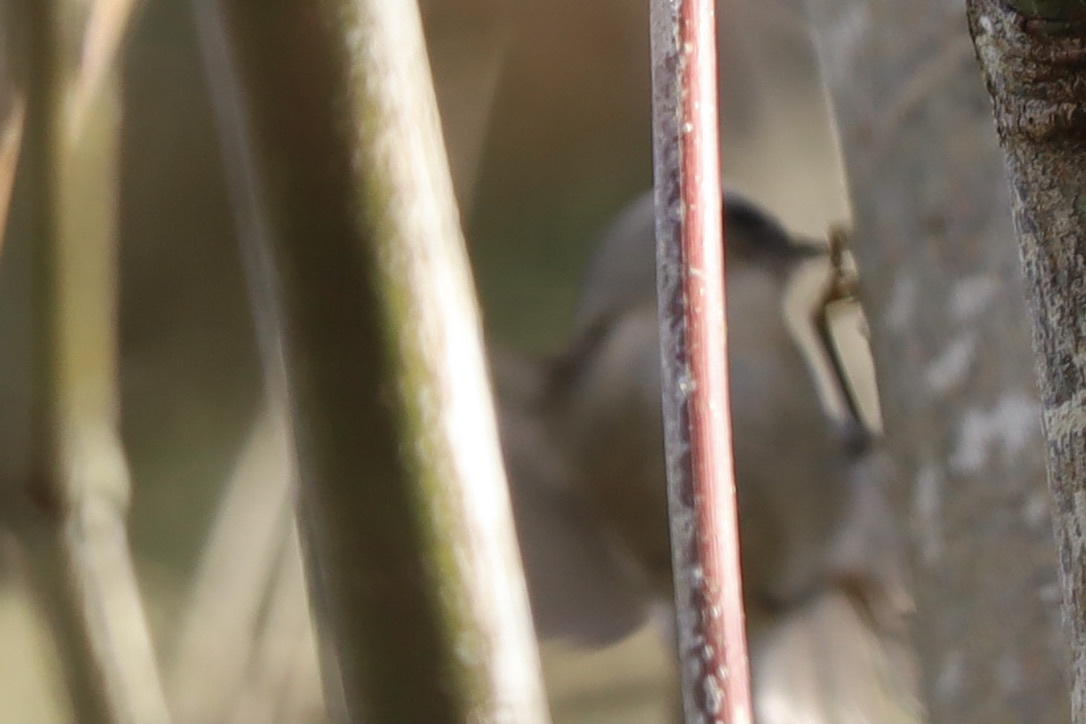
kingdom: Animalia
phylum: Chordata
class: Aves
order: Passeriformes
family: Regulidae
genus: Regulus
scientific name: Regulus satrapa
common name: Golden-crowned kinglet
